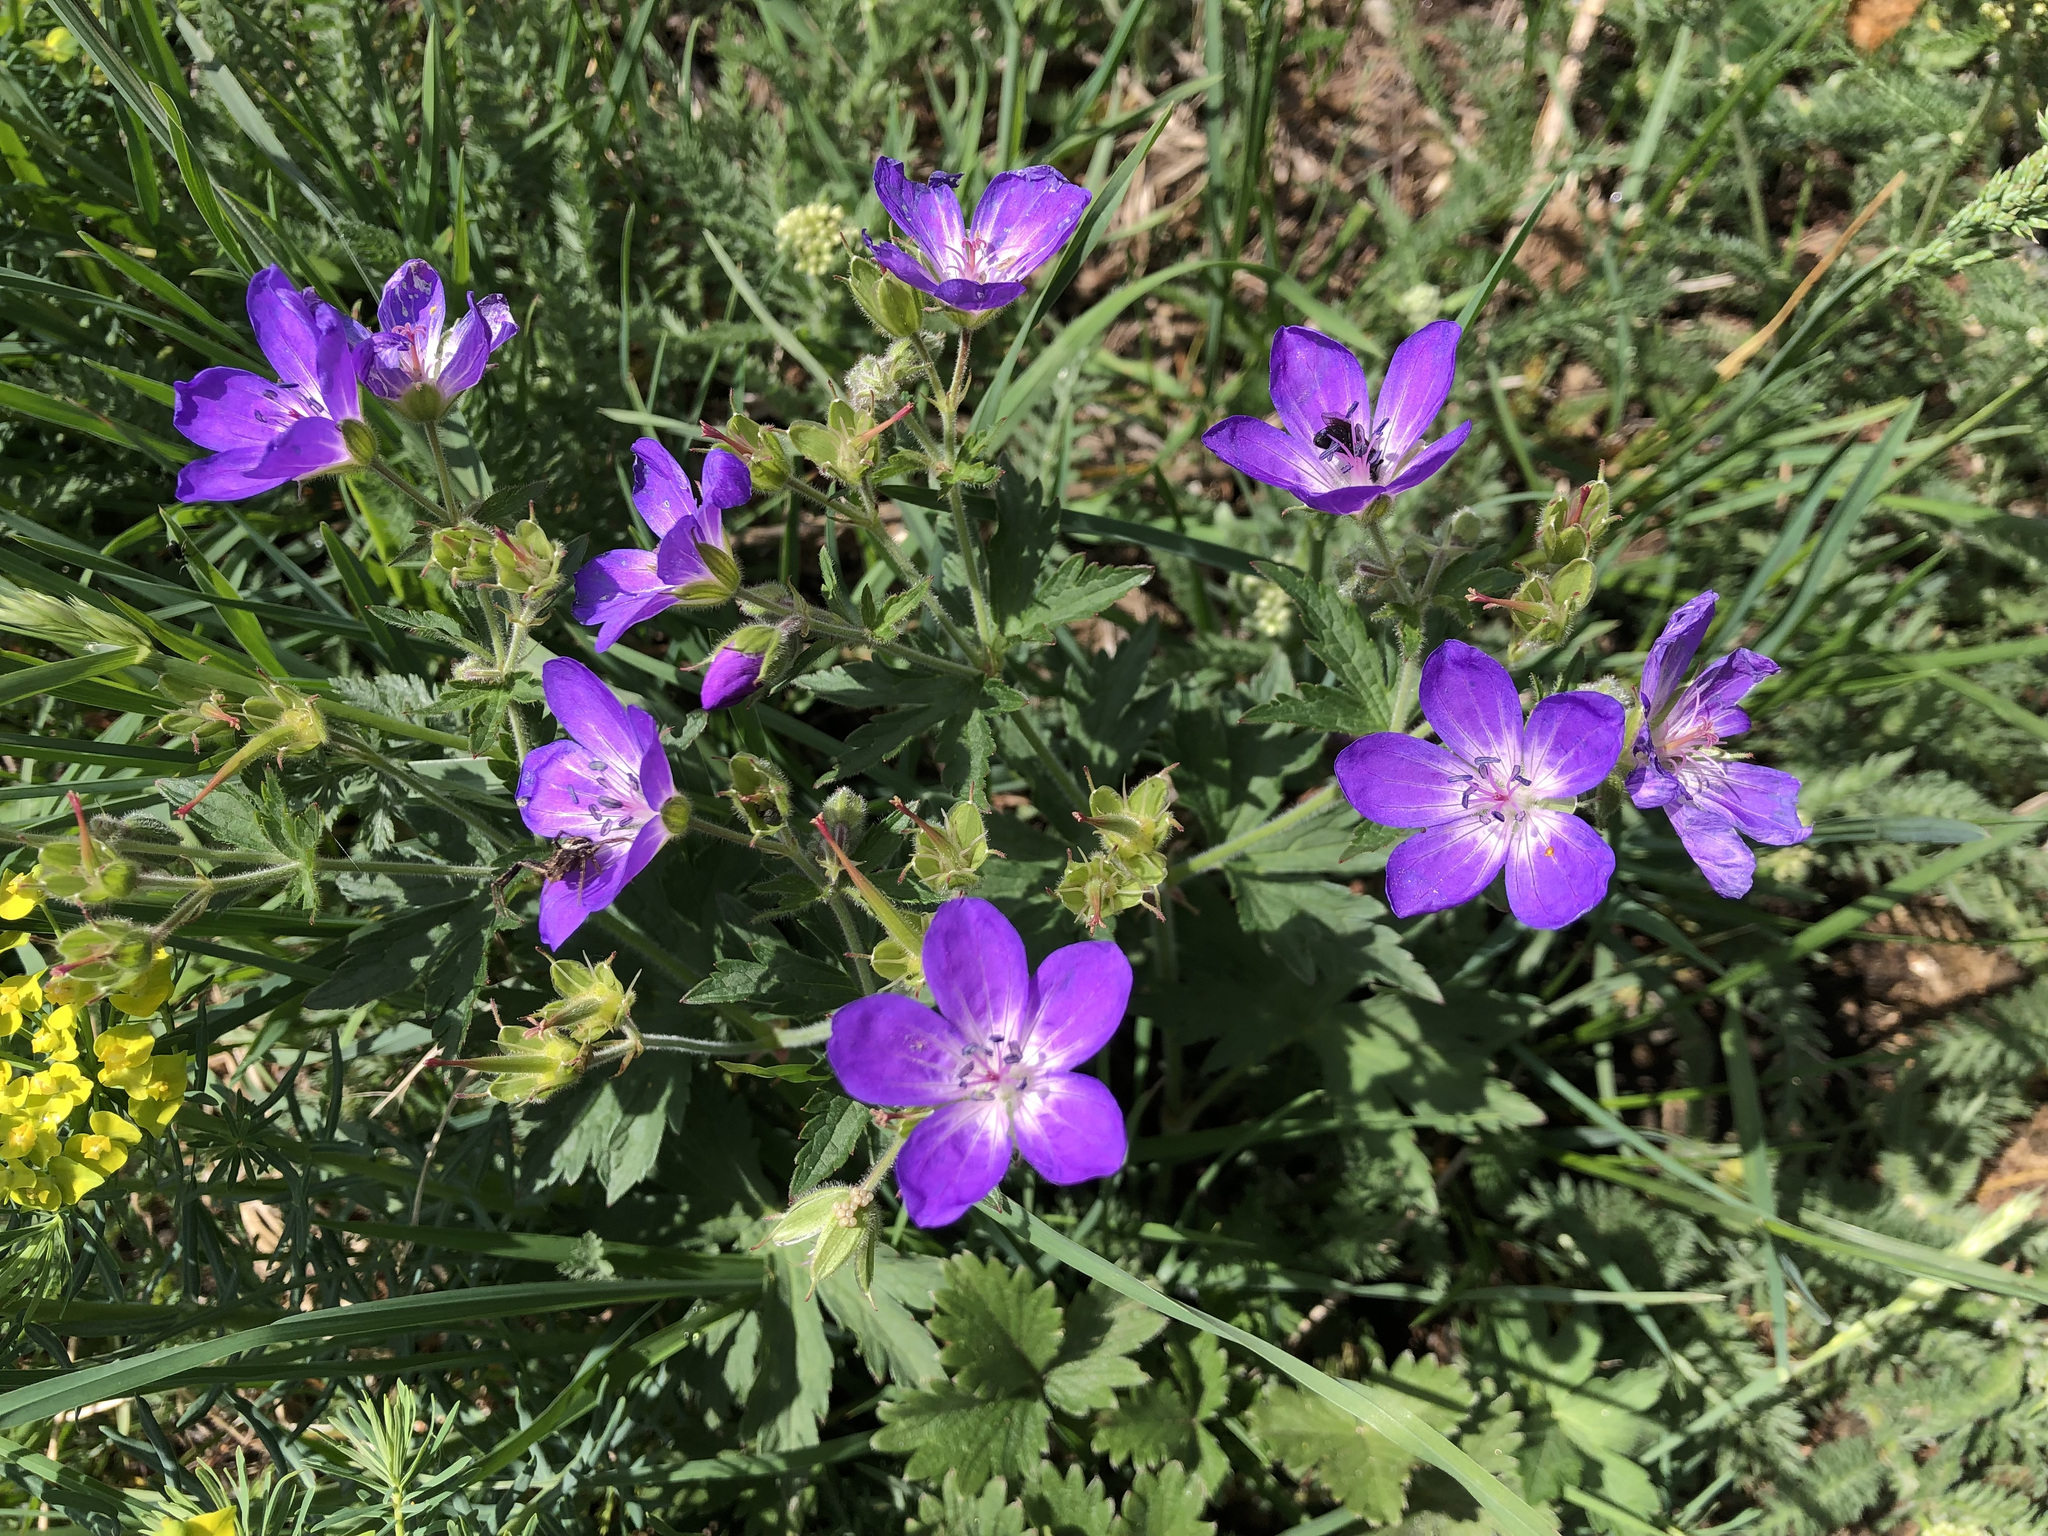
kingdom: Plantae
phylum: Tracheophyta
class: Magnoliopsida
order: Geraniales
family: Geraniaceae
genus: Geranium
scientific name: Geranium sylvaticum
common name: Wood crane's-bill
